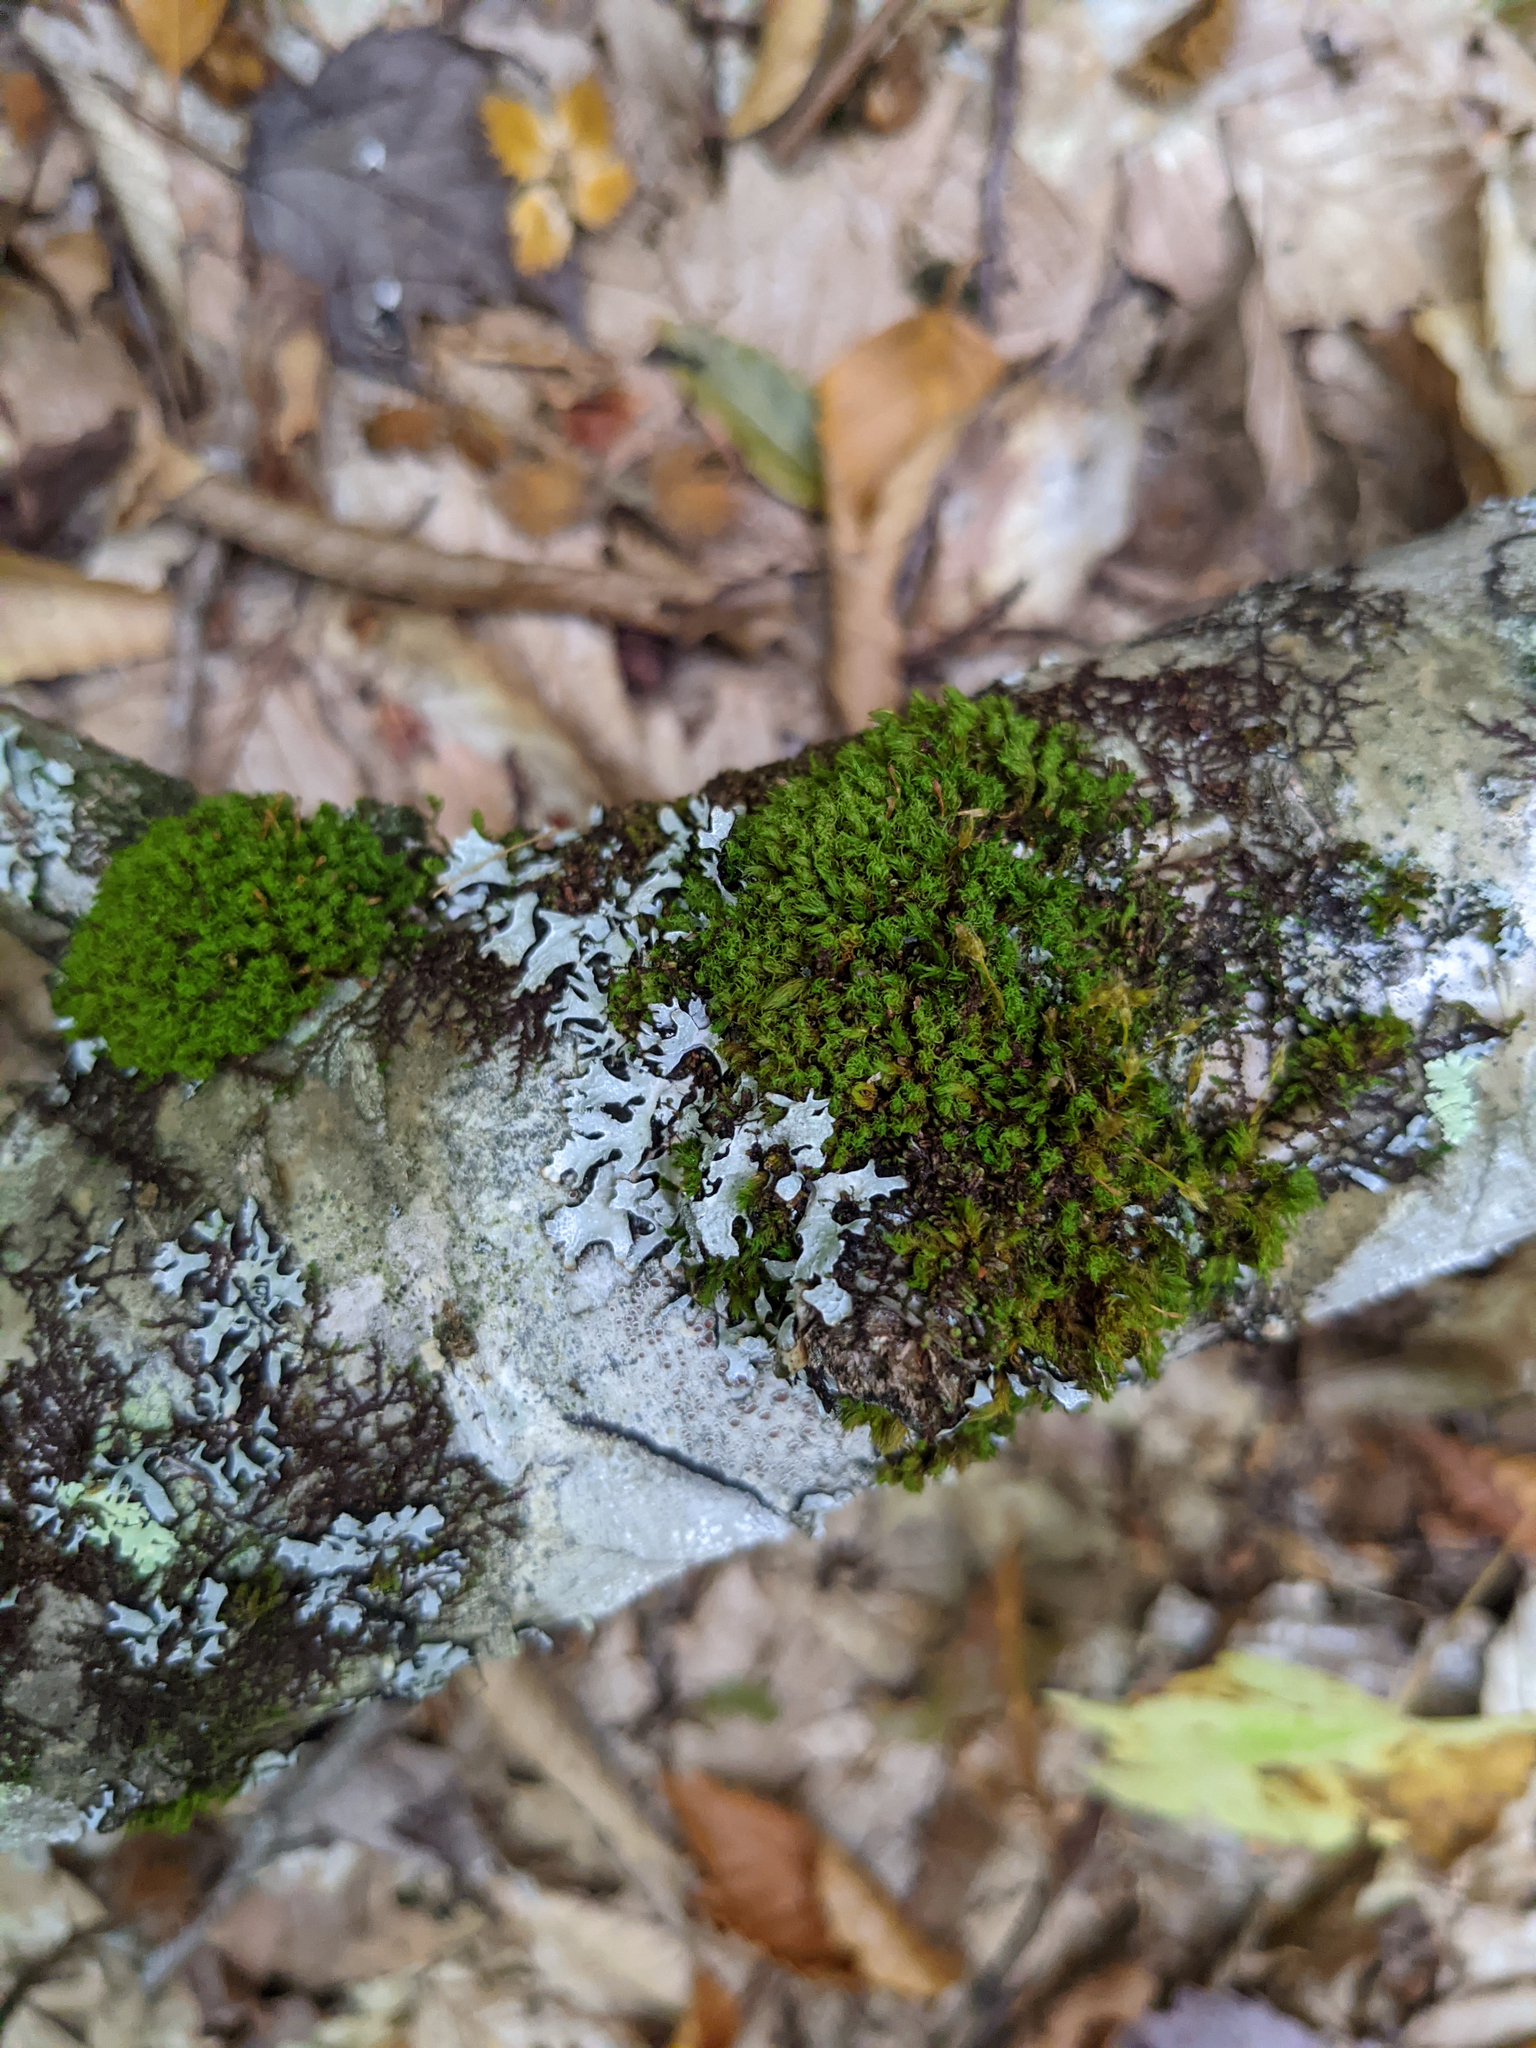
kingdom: Plantae
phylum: Bryophyta
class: Bryopsida
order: Orthotrichales
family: Orthotrichaceae
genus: Ulota
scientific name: Ulota crispa
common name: Crisped pincushion moss
